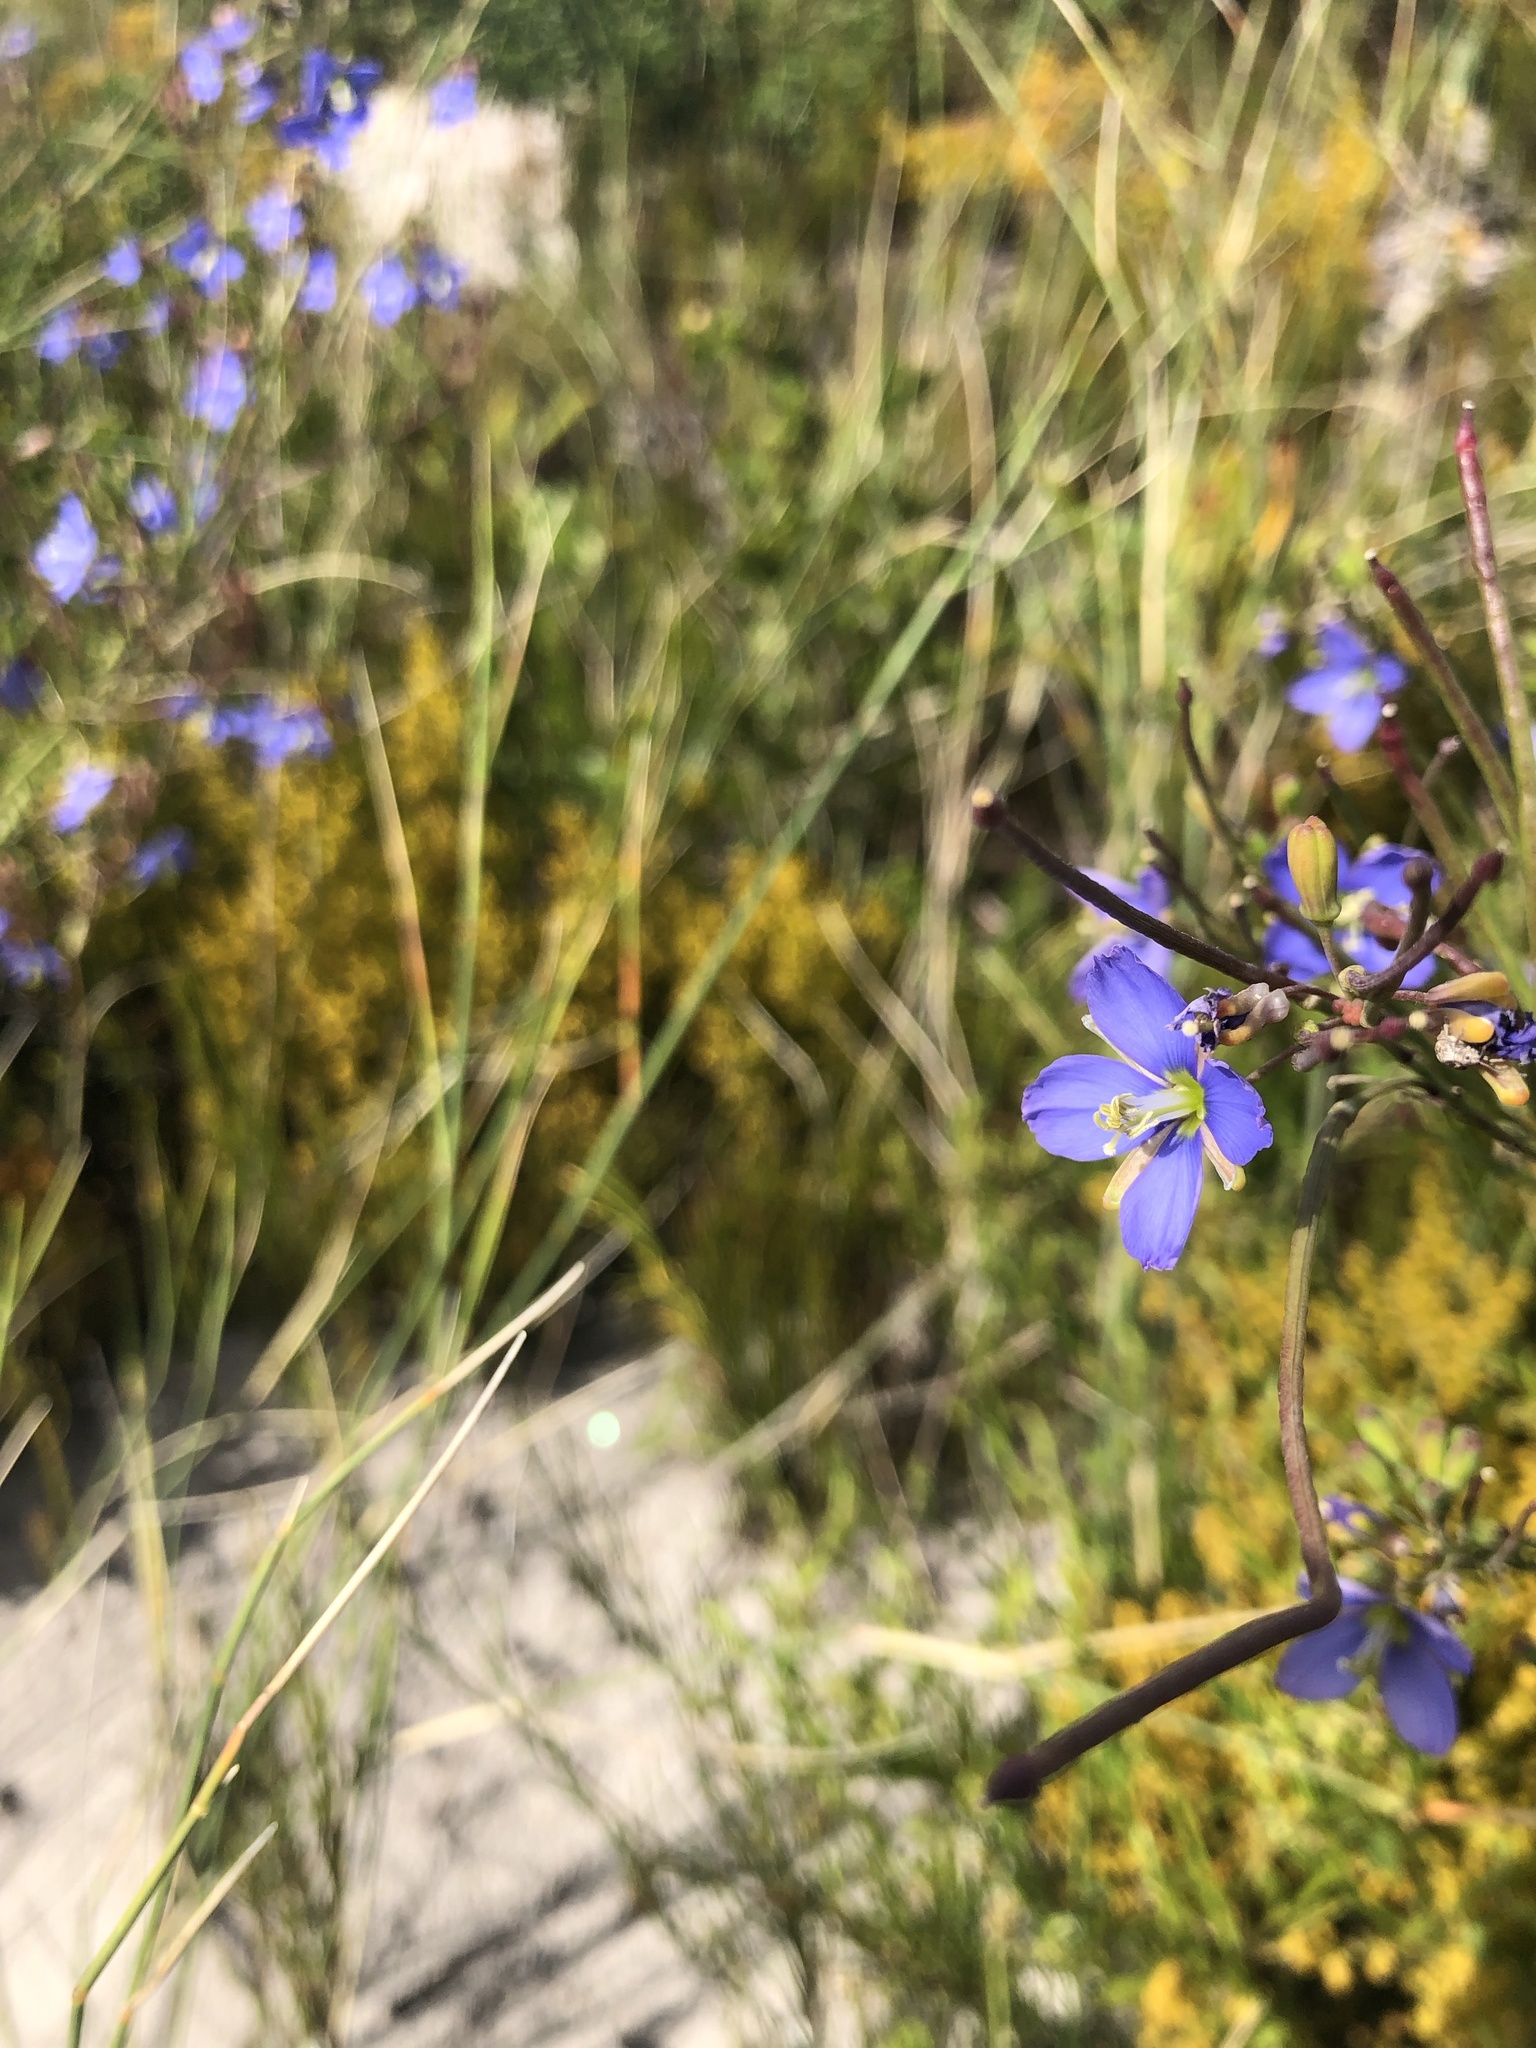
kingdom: Plantae
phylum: Tracheophyta
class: Magnoliopsida
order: Brassicales
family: Brassicaceae
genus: Heliophila
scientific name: Heliophila linearis
